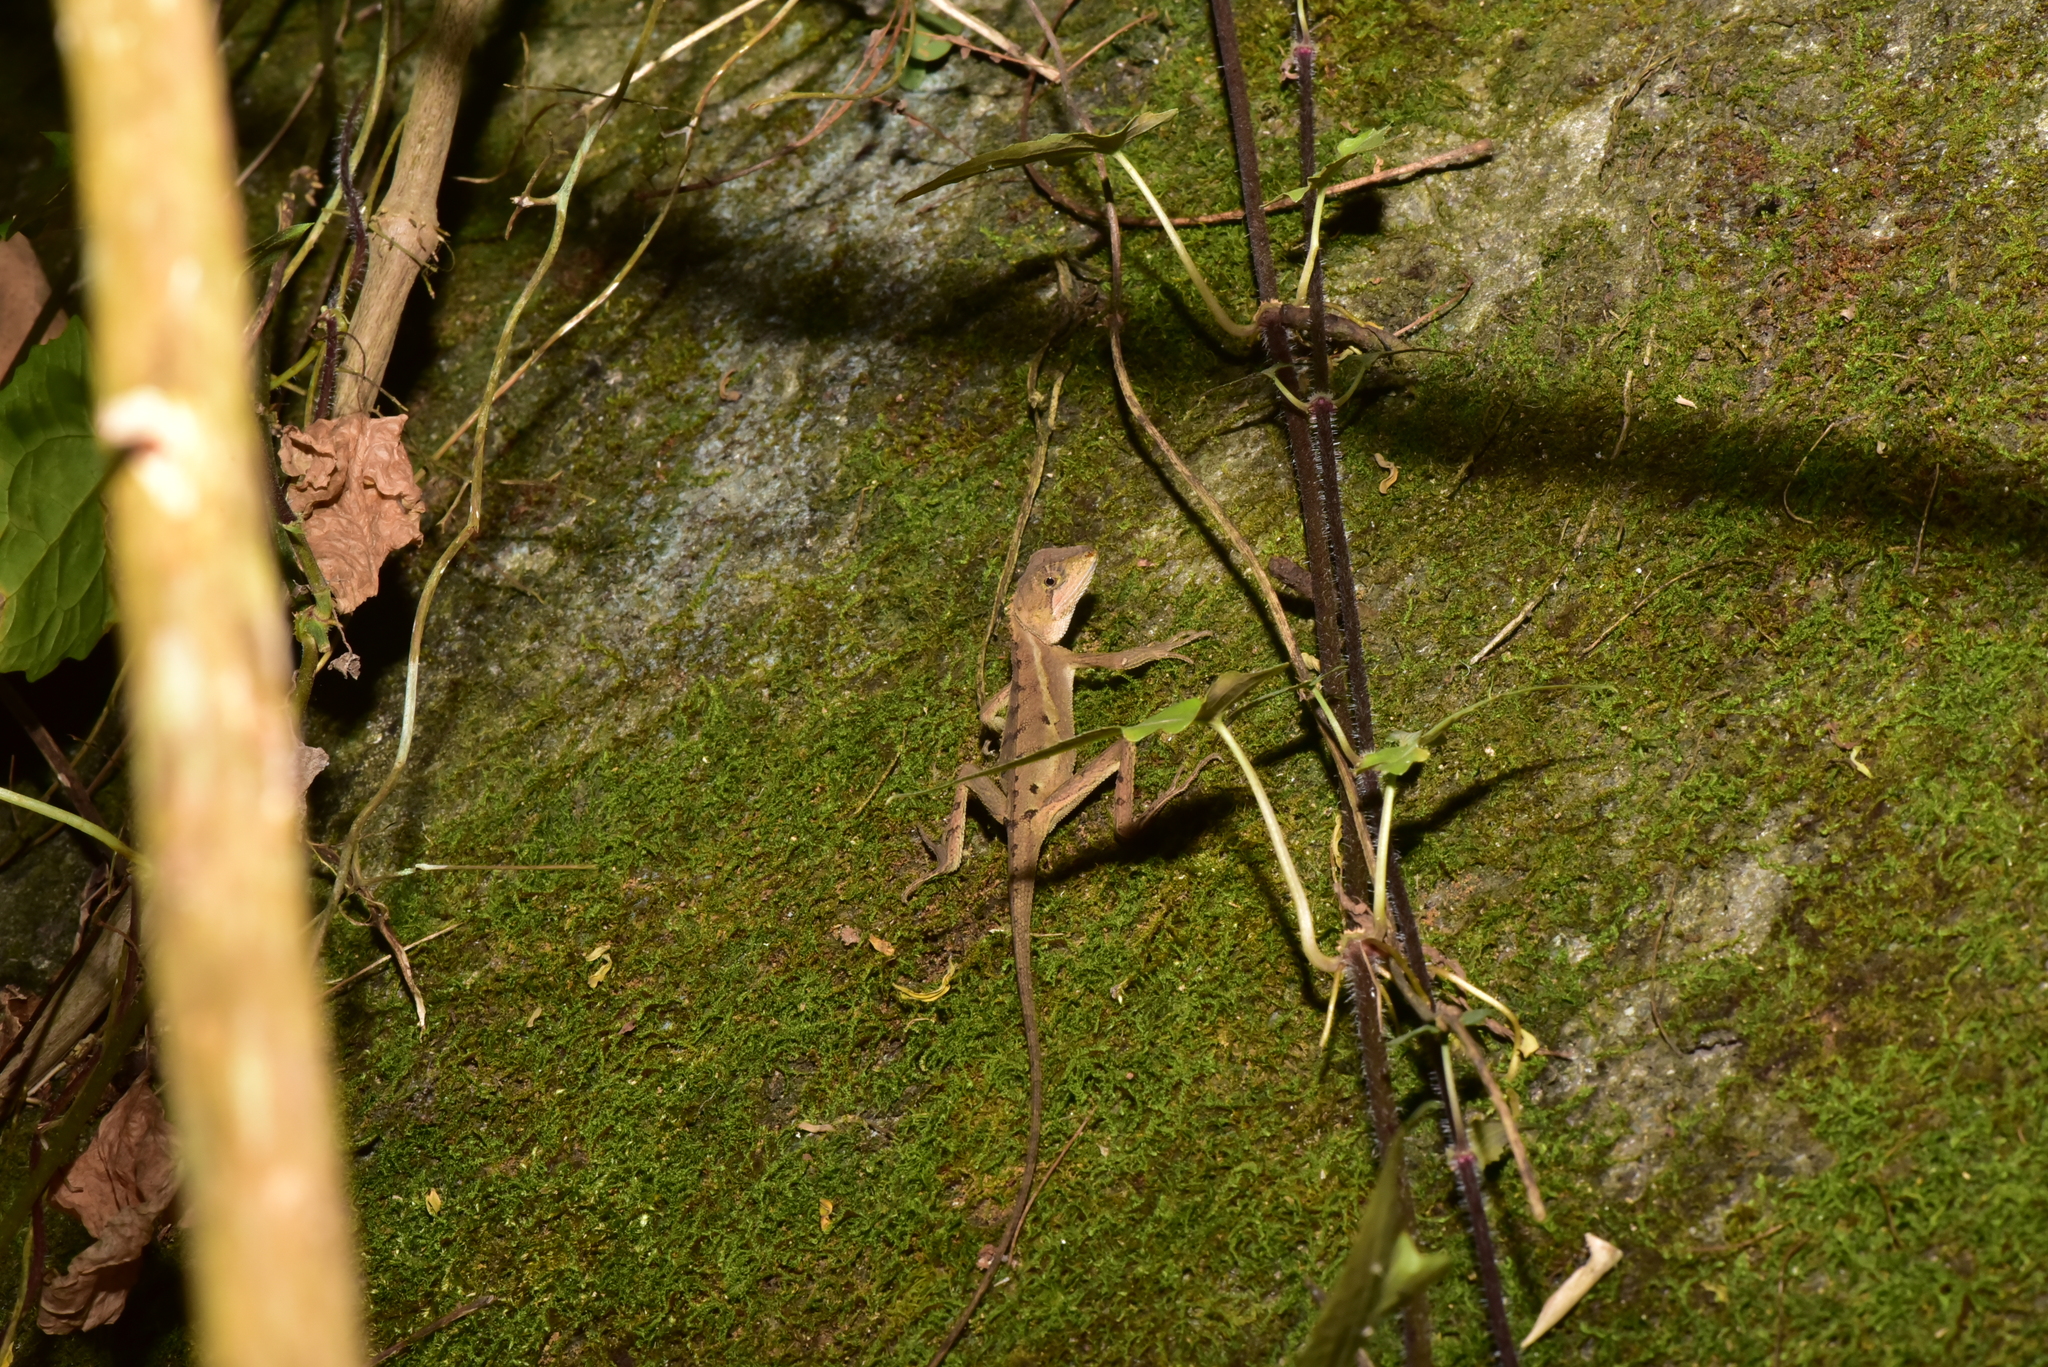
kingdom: Animalia
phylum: Chordata
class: Squamata
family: Agamidae
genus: Diploderma
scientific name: Diploderma swinhonis
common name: Taiwan japalure
